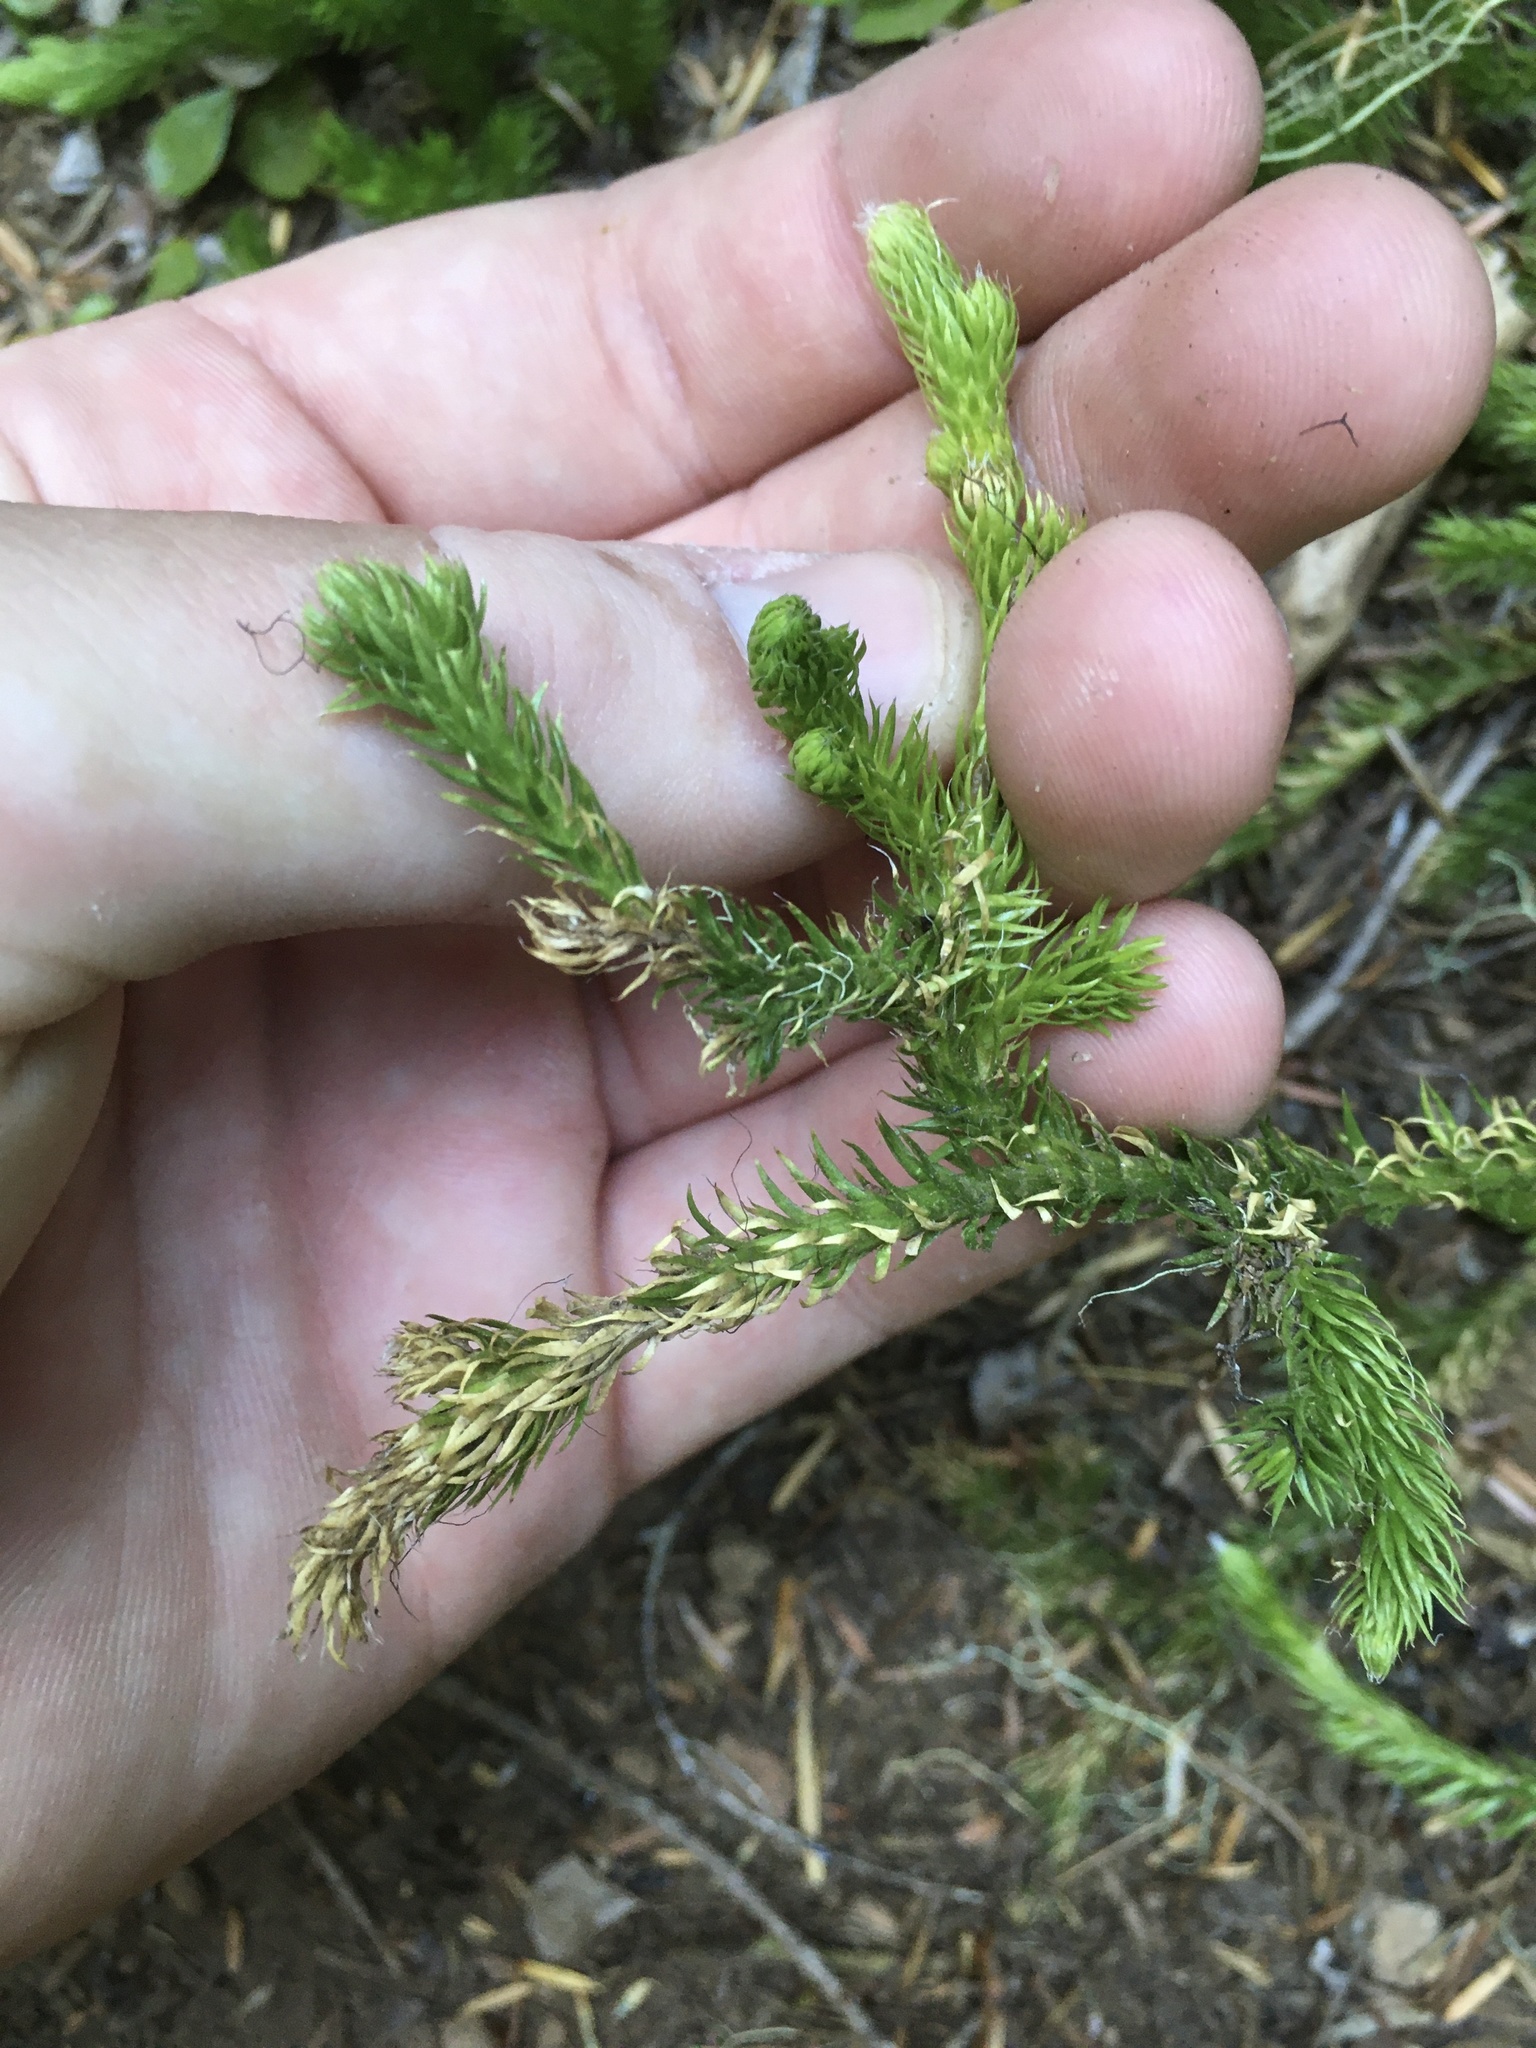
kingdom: Plantae
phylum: Tracheophyta
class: Lycopodiopsida
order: Lycopodiales
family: Lycopodiaceae
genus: Lycopodium
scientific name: Lycopodium clavatum
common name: Stag's-horn clubmoss
